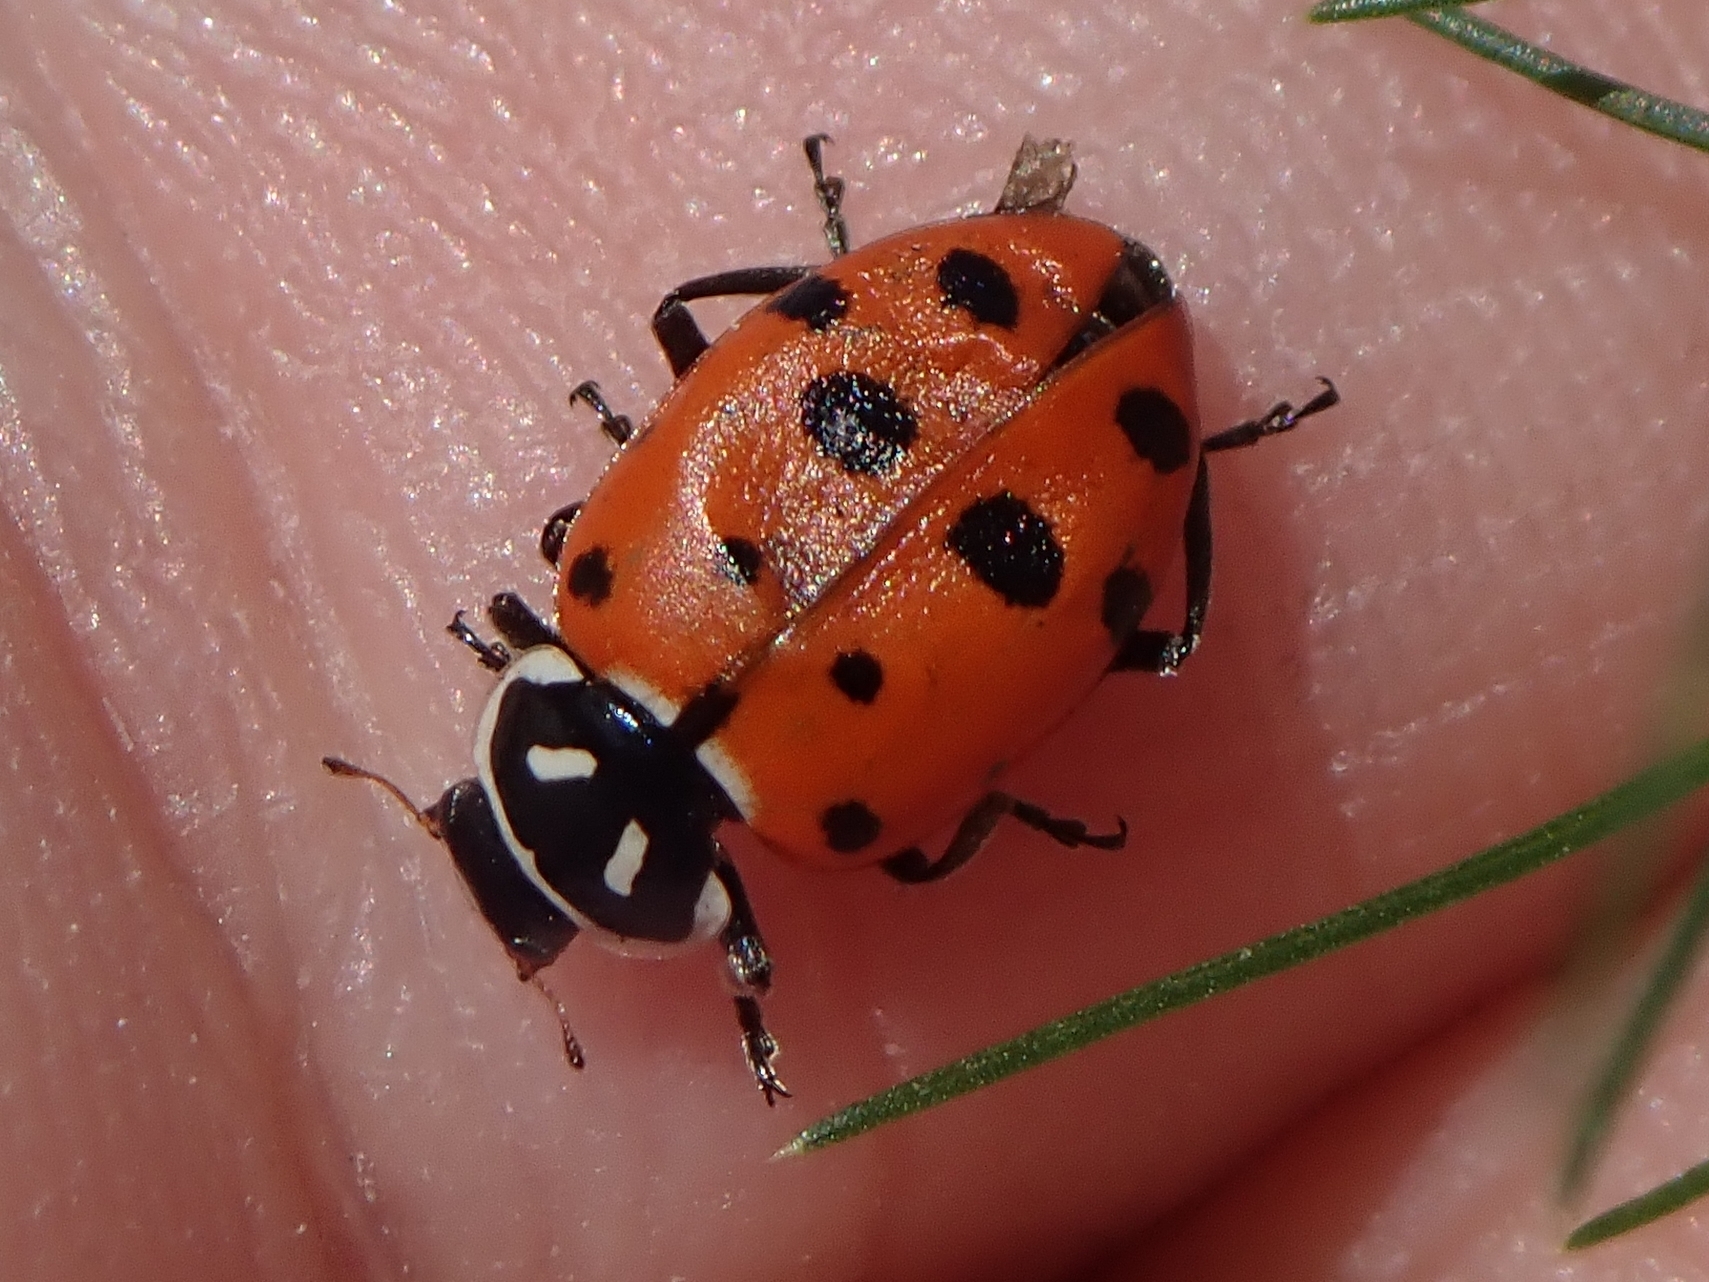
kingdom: Animalia
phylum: Arthropoda
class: Insecta
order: Coleoptera
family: Coccinellidae
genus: Hippodamia
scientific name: Hippodamia convergens
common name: Convergent lady beetle
